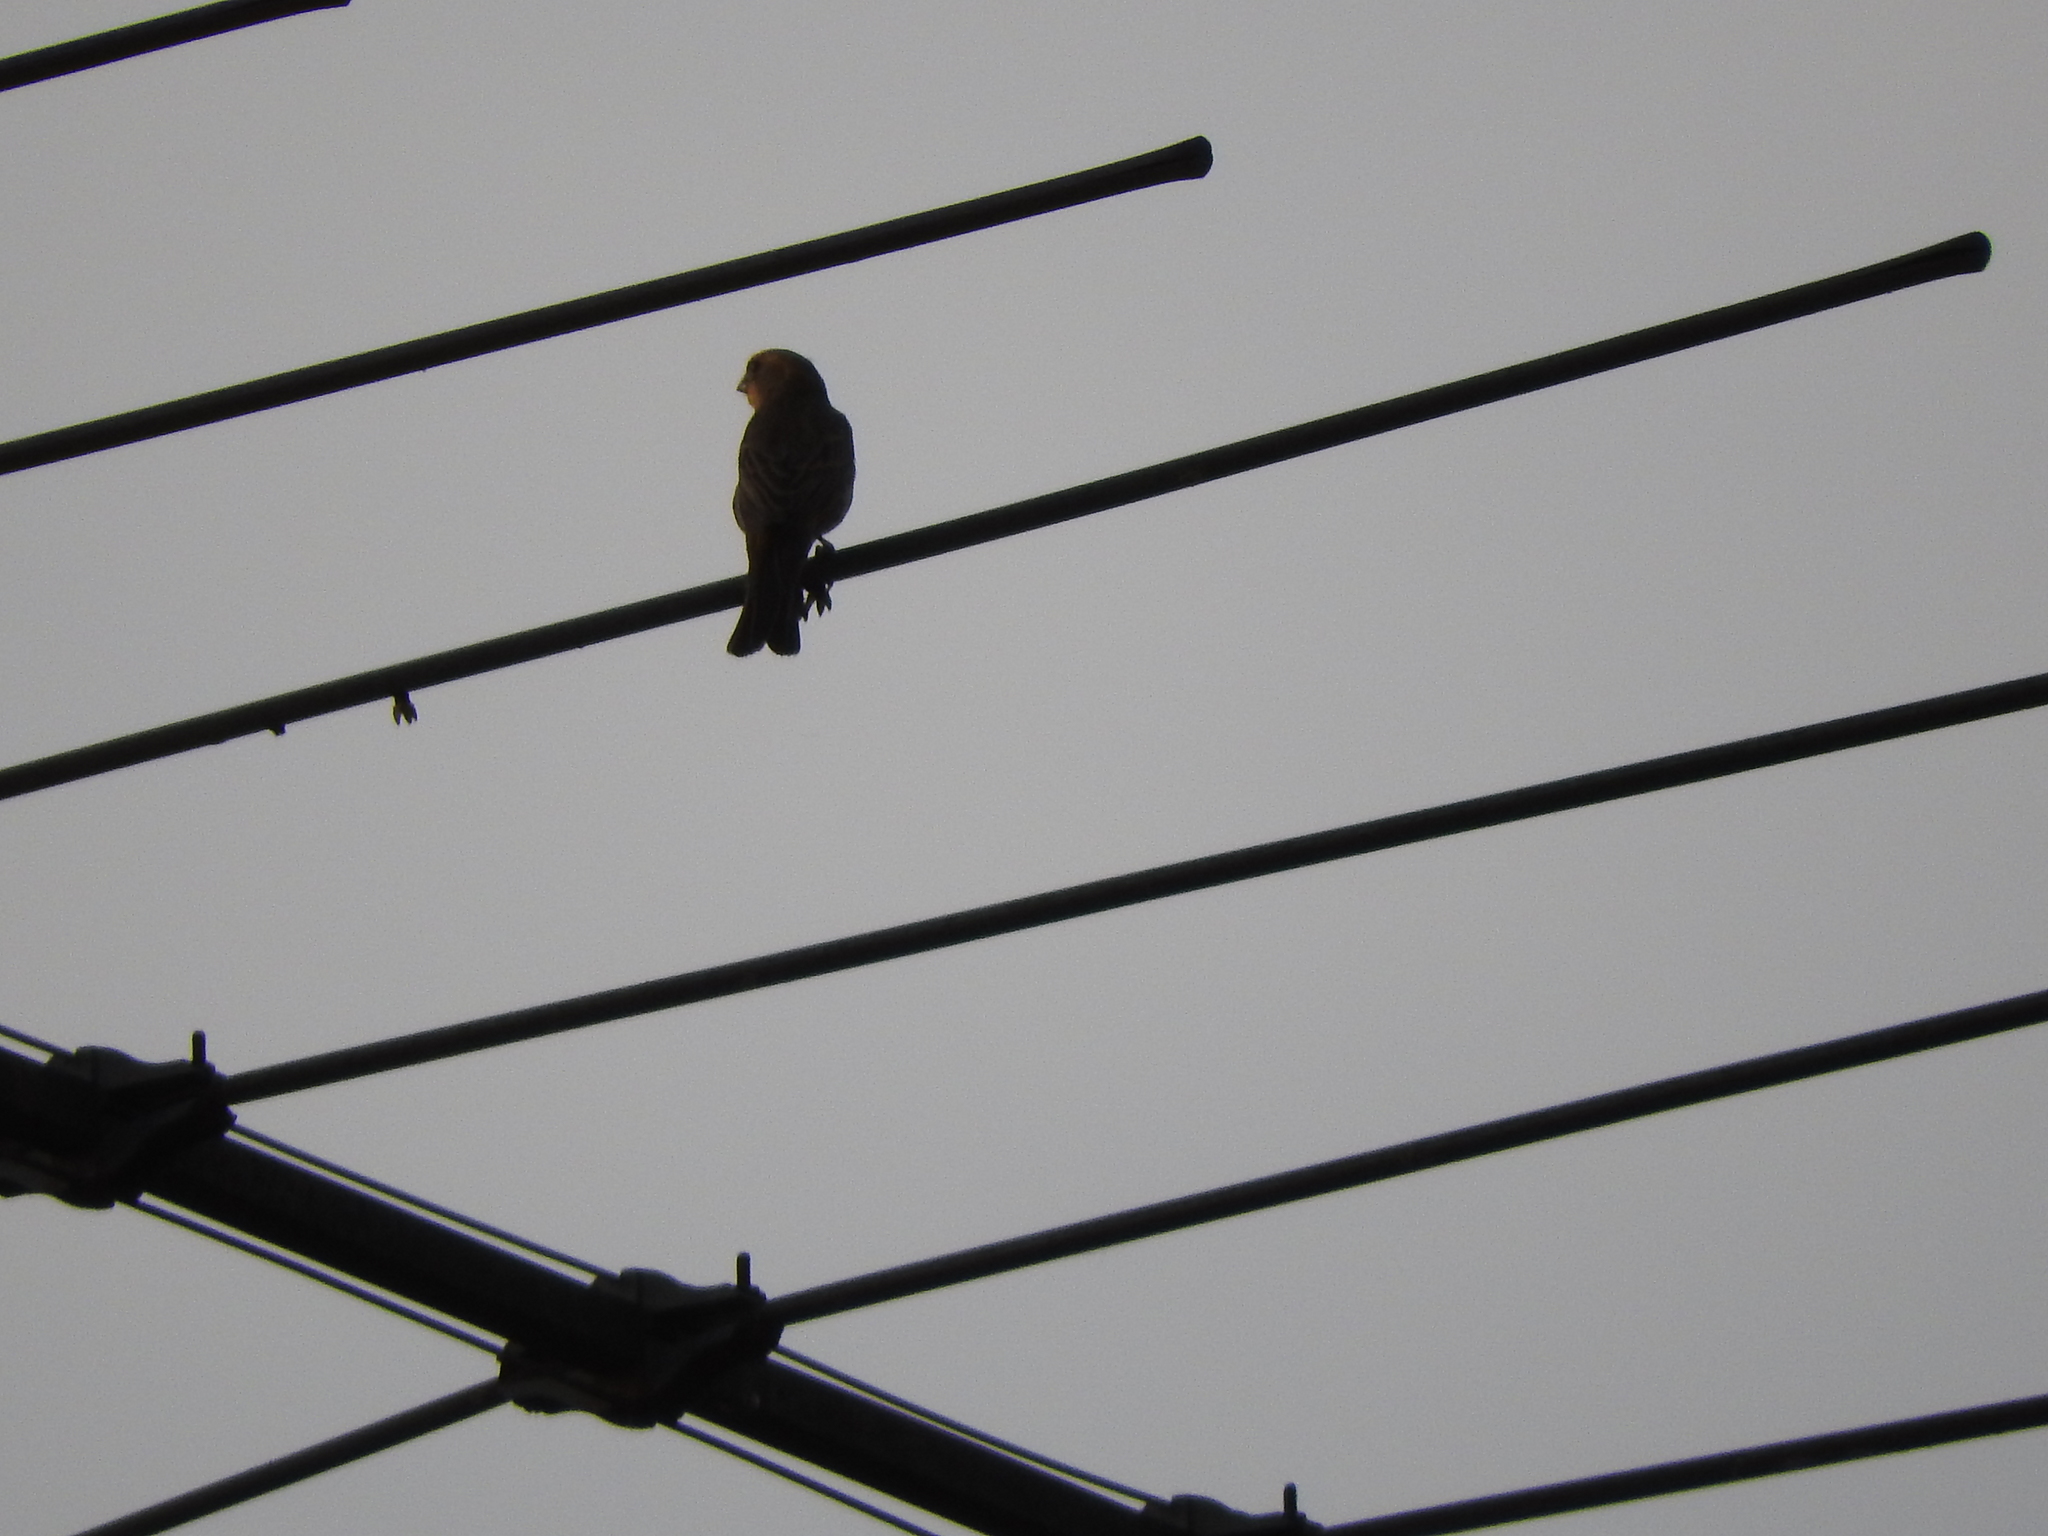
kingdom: Animalia
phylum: Chordata
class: Aves
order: Passeriformes
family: Fringillidae
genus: Haemorhous
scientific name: Haemorhous mexicanus
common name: House finch
